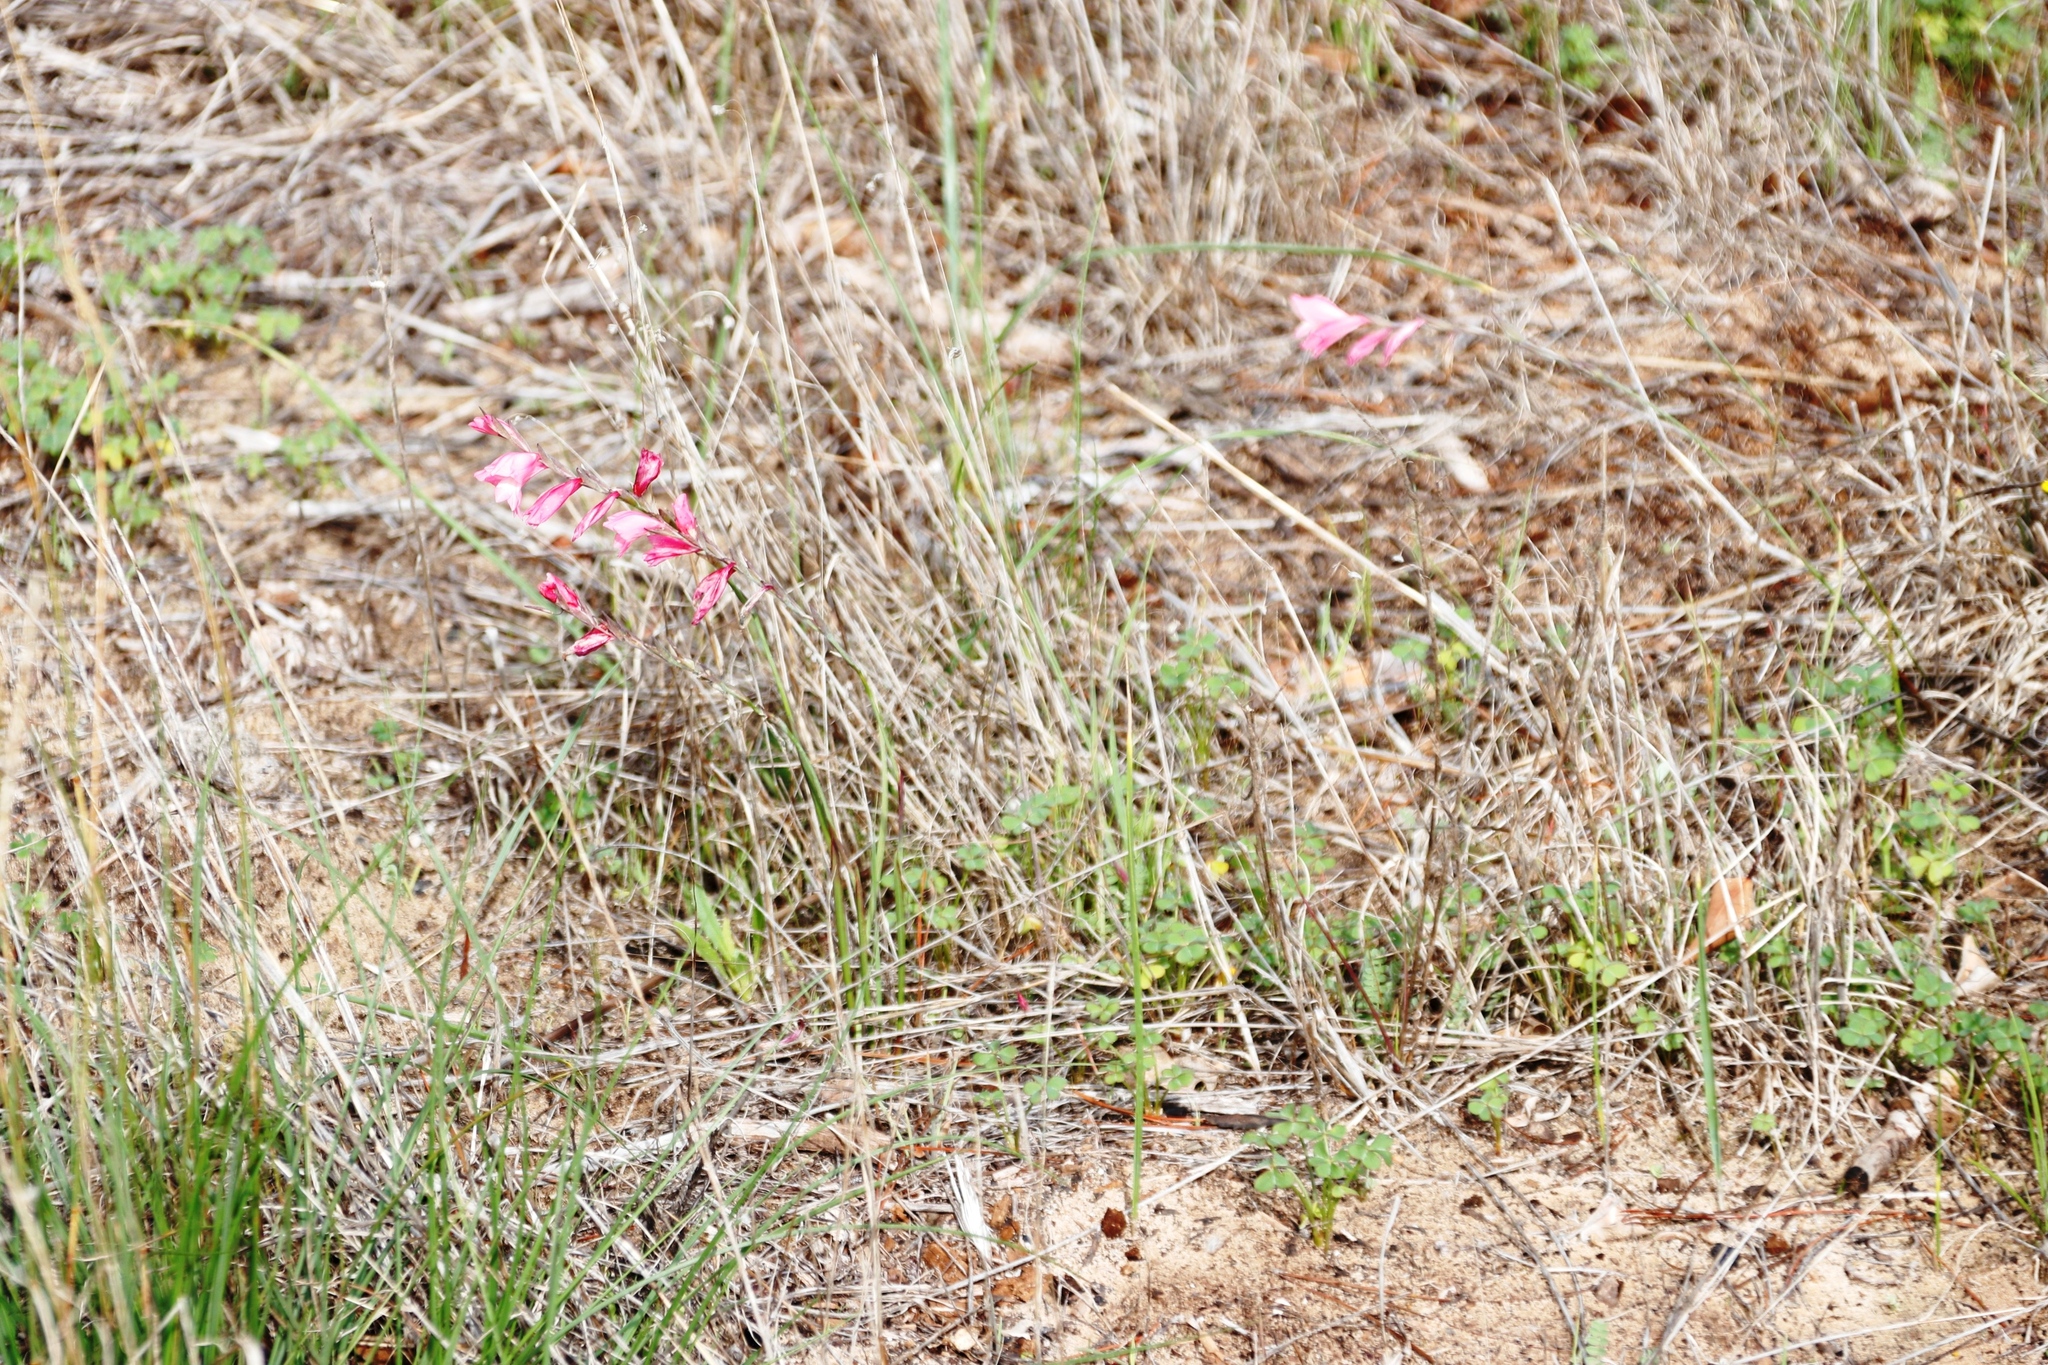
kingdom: Plantae
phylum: Tracheophyta
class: Liliopsida
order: Asparagales
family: Iridaceae
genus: Gladiolus
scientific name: Gladiolus brevifolius
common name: March pypie
